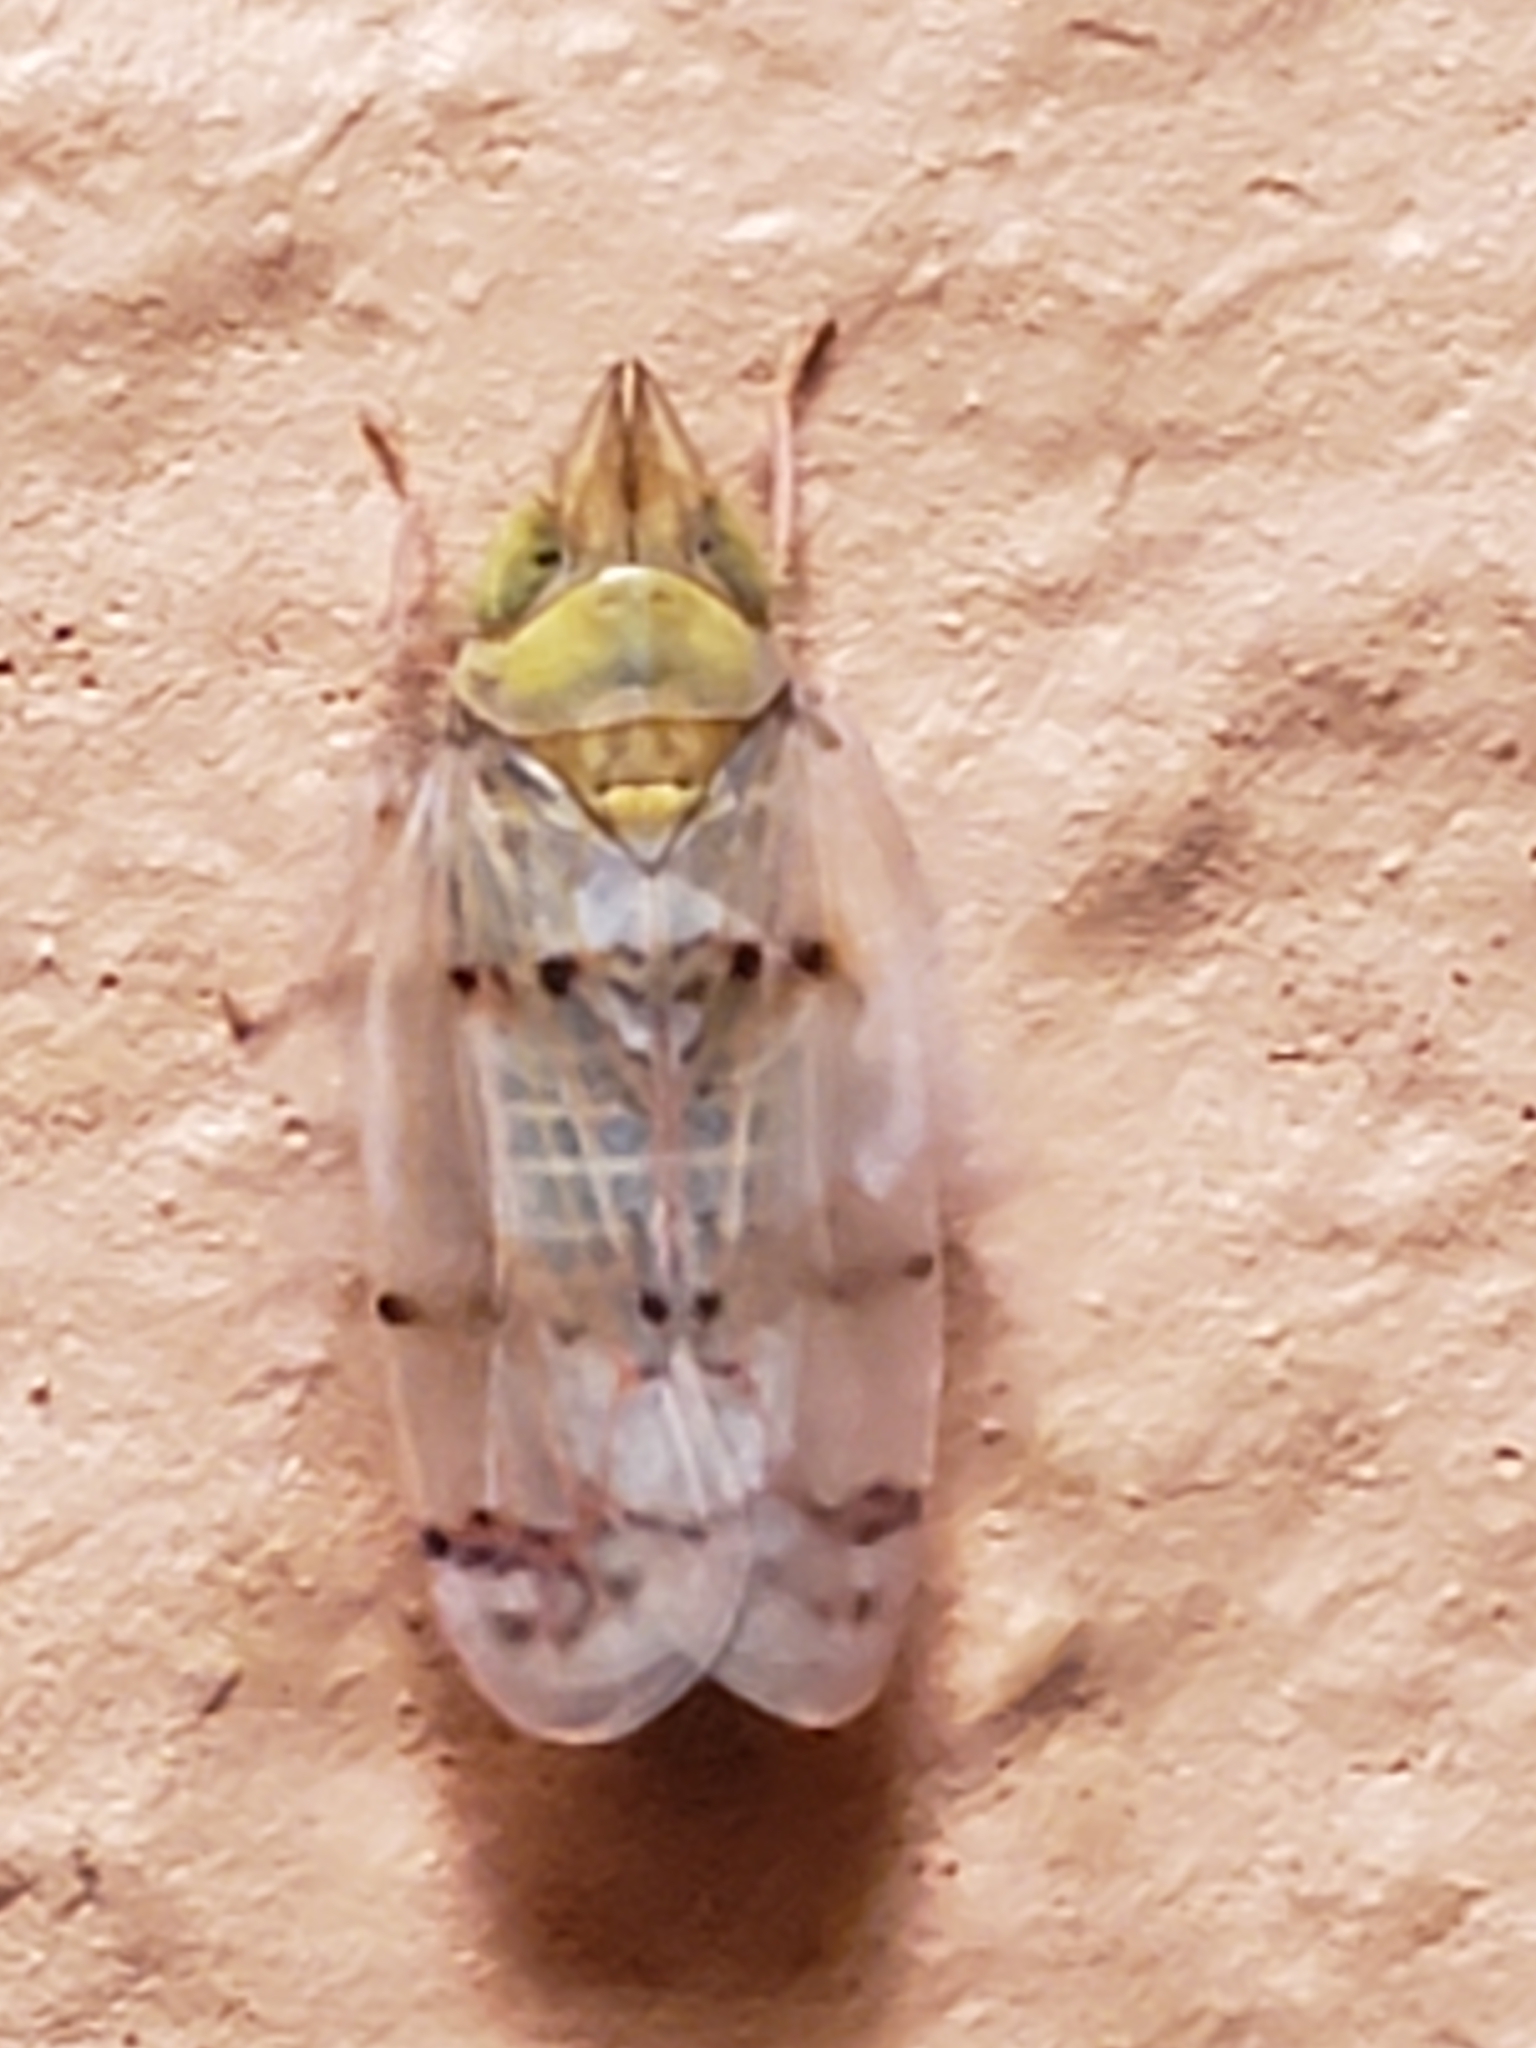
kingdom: Animalia
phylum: Arthropoda
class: Insecta
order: Hemiptera
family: Cicadellidae
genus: Japananus
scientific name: Japananus hyalinus
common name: The japanese maple leafhopper
